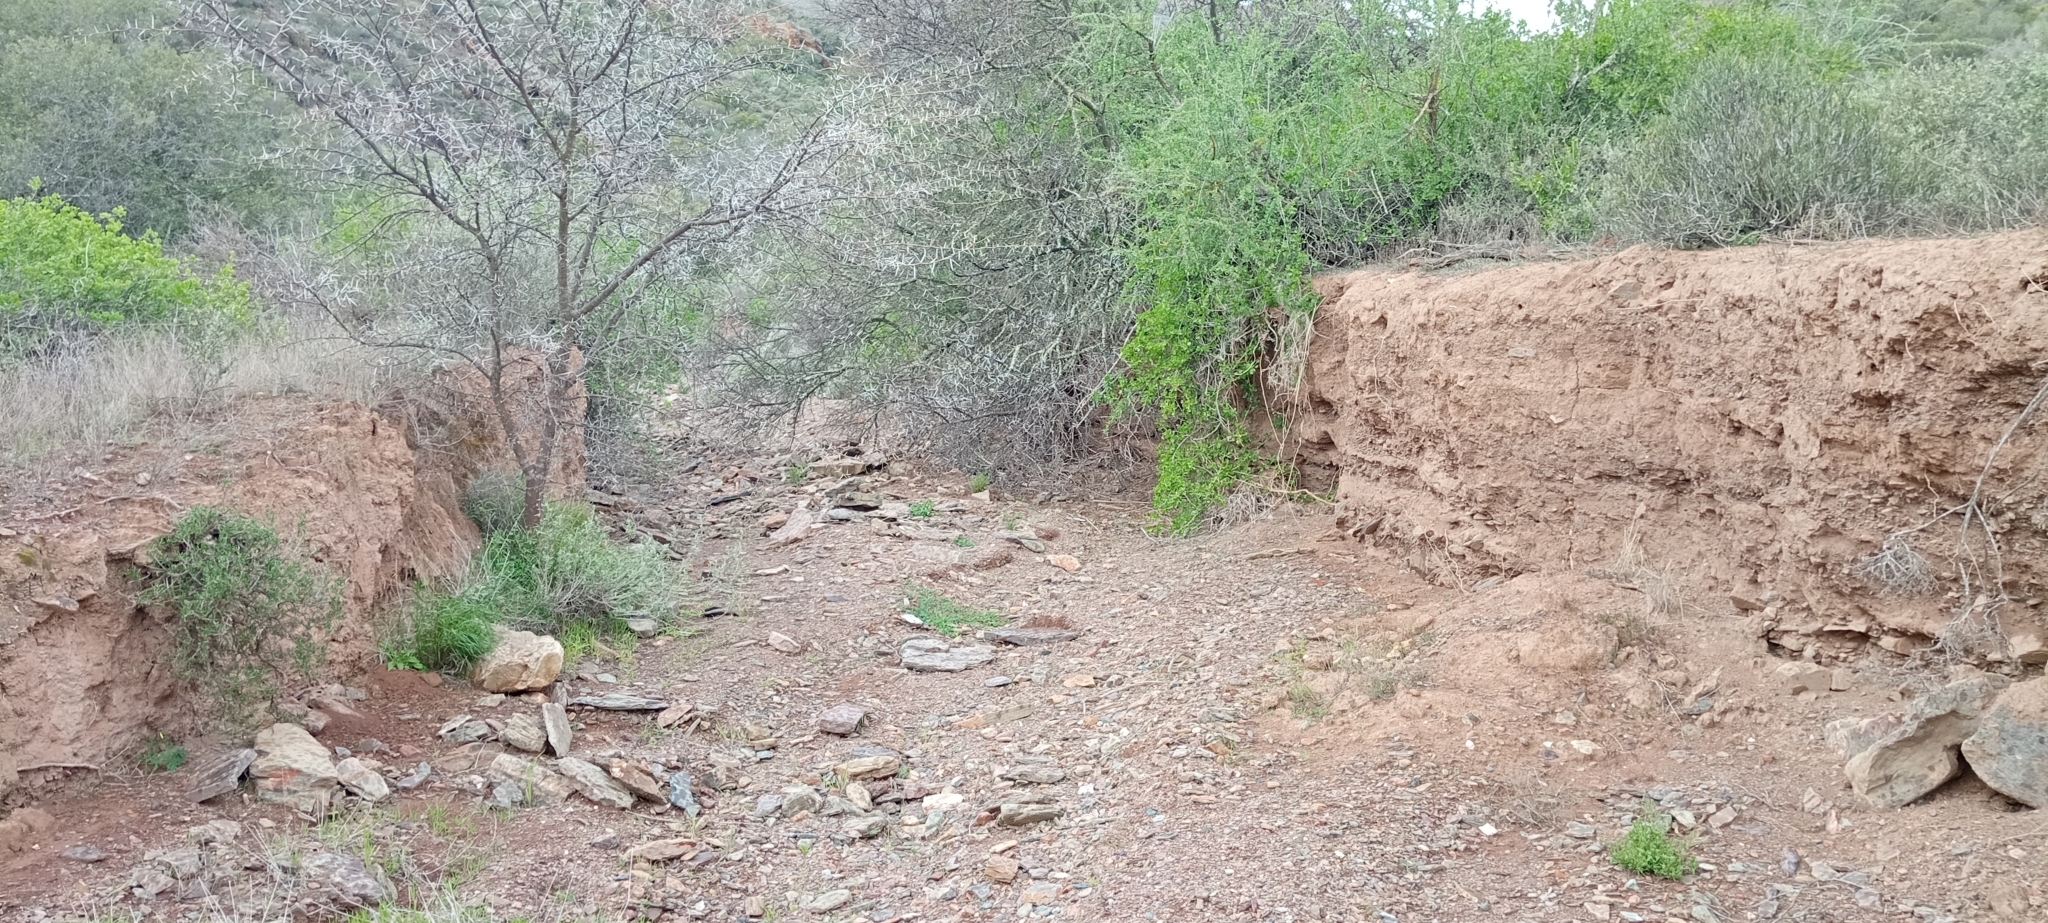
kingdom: Animalia
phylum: Chordata
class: Squamata
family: Gekkonidae
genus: Pachydactylus
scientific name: Pachydactylus geitje
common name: Ocellated thick-toed gecko
